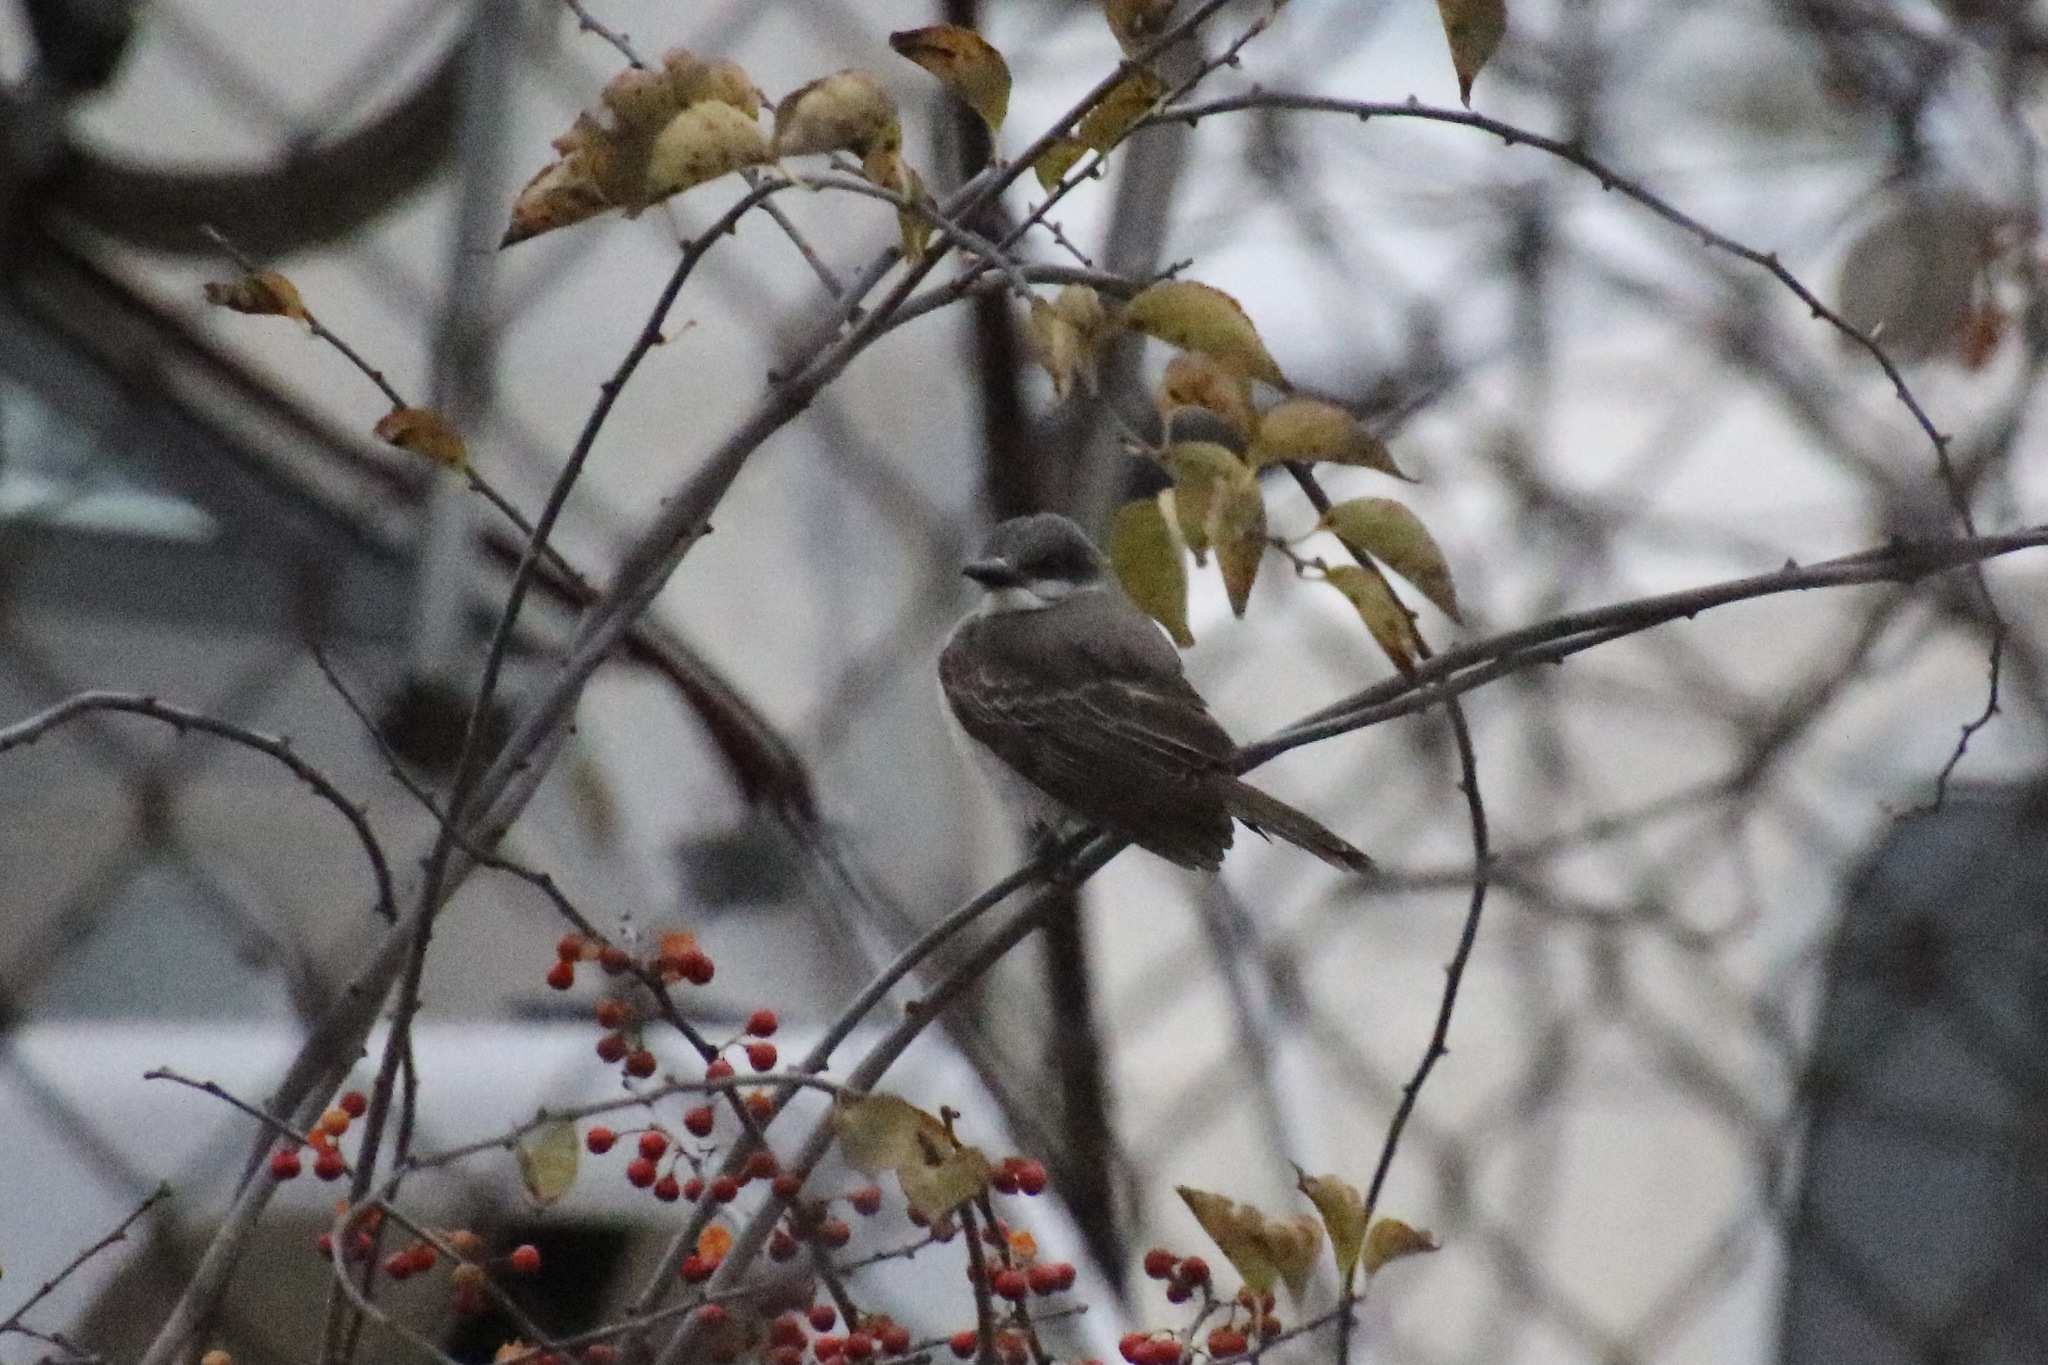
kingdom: Animalia
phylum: Chordata
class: Aves
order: Passeriformes
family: Tyrannidae
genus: Tyrannus
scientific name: Tyrannus dominicensis
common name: Gray kingbird
